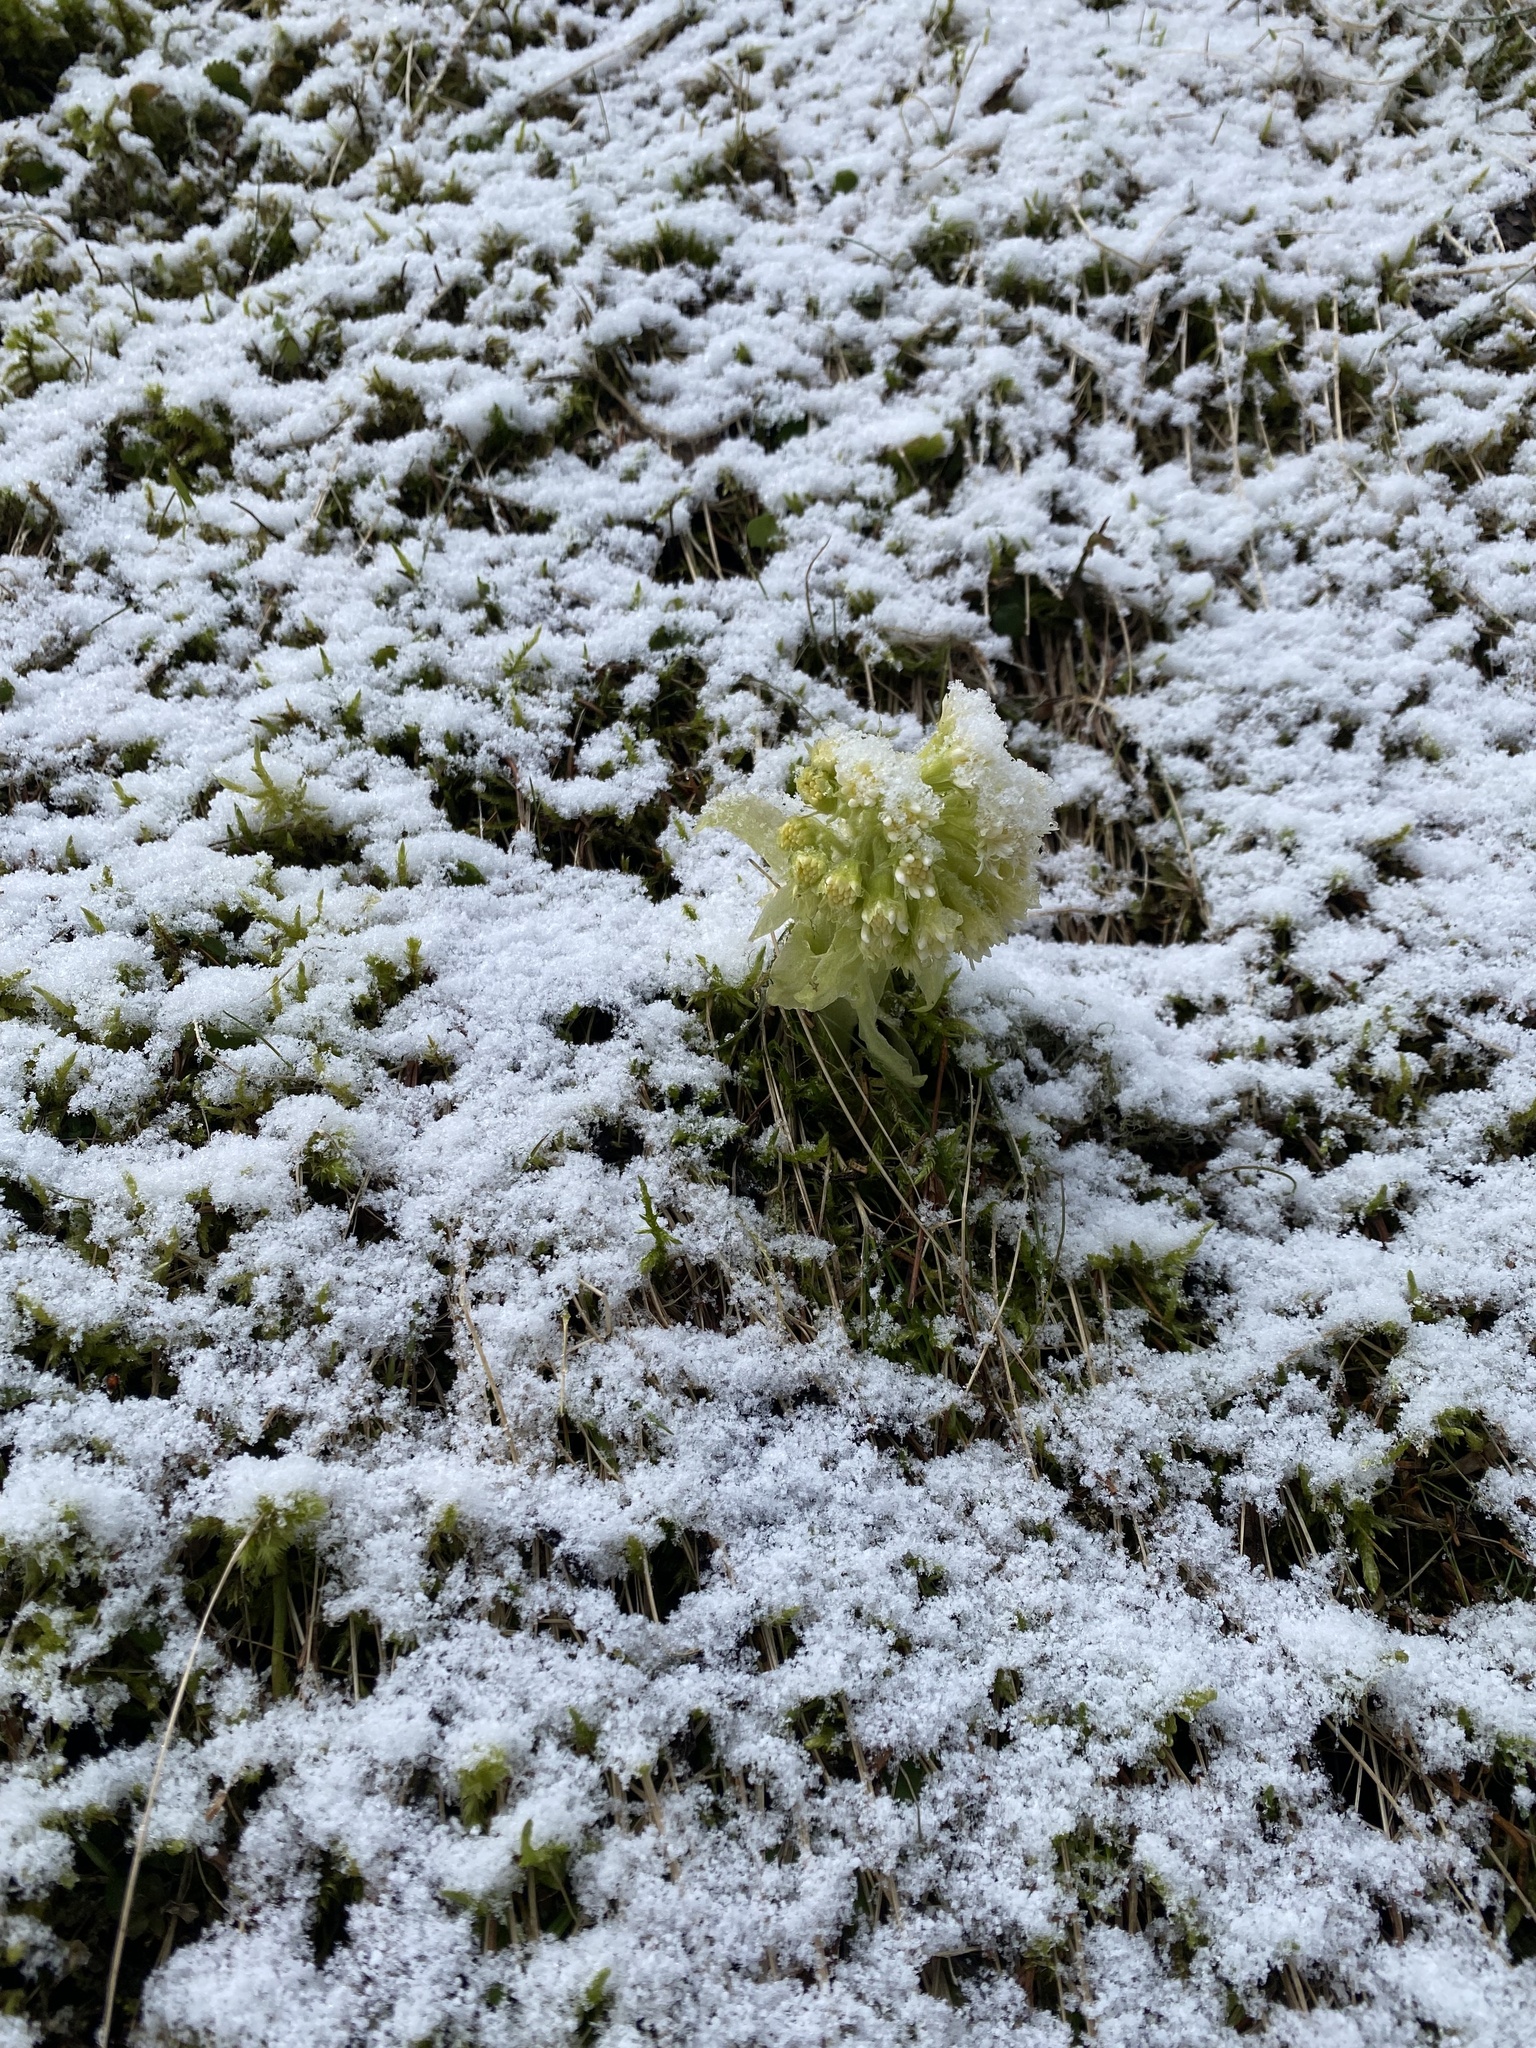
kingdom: Plantae
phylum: Tracheophyta
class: Magnoliopsida
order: Asterales
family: Asteraceae
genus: Petasites
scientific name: Petasites albus
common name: White butterbur
